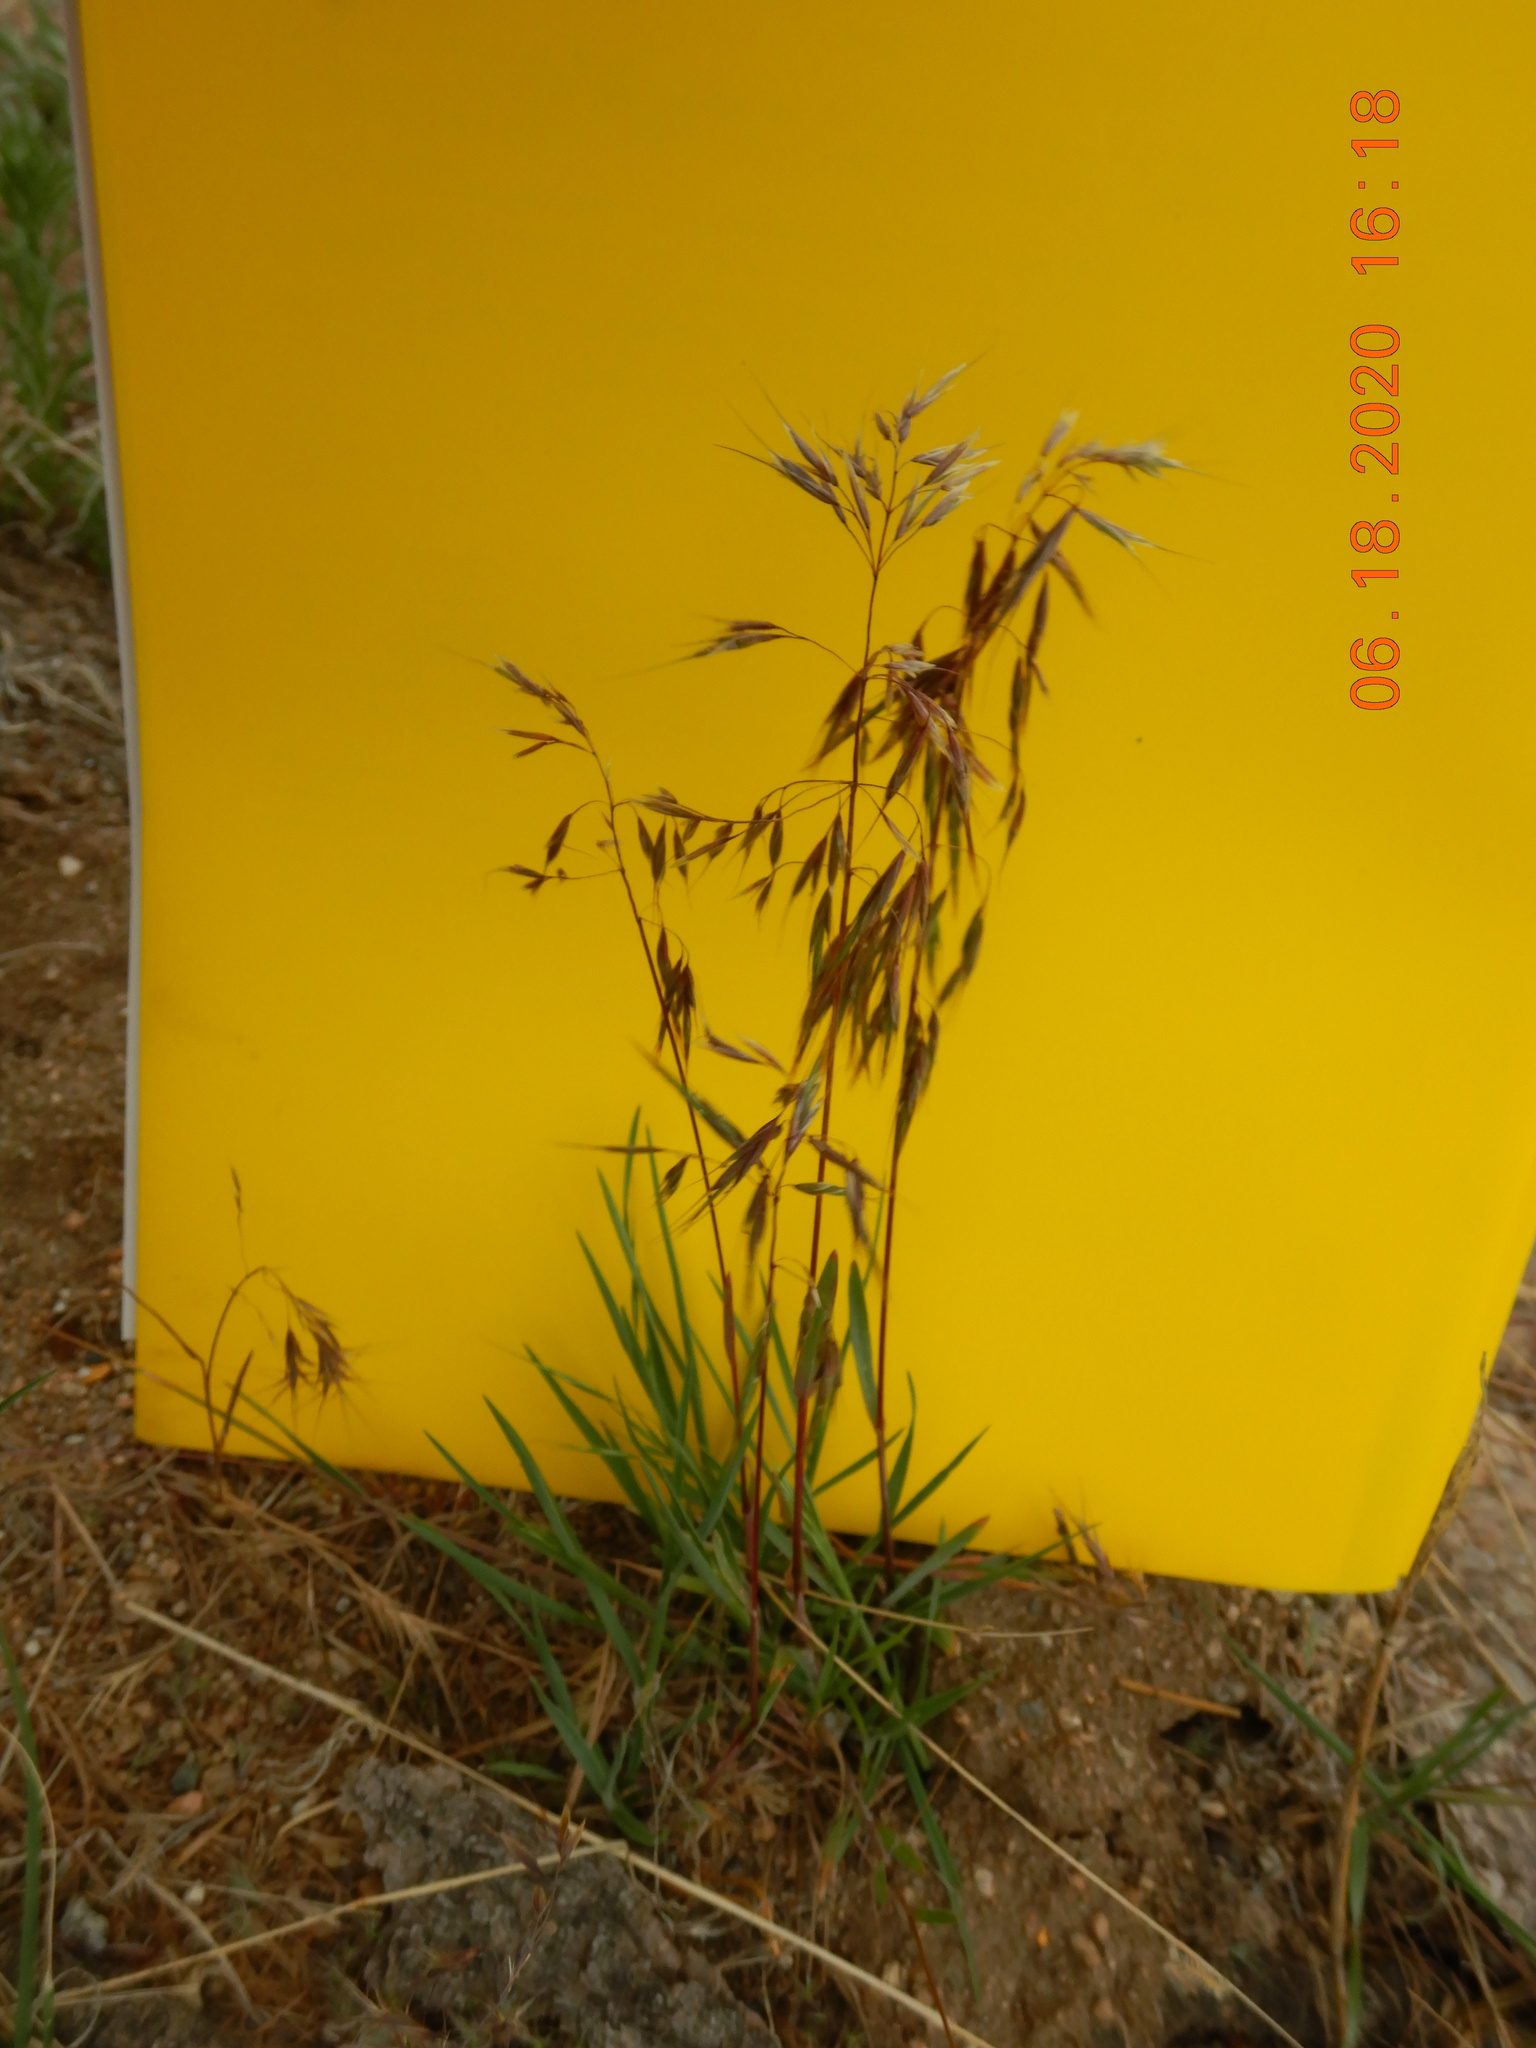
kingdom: Plantae
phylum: Tracheophyta
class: Liliopsida
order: Poales
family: Poaceae
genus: Bromus
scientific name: Bromus tectorum
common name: Cheatgrass
